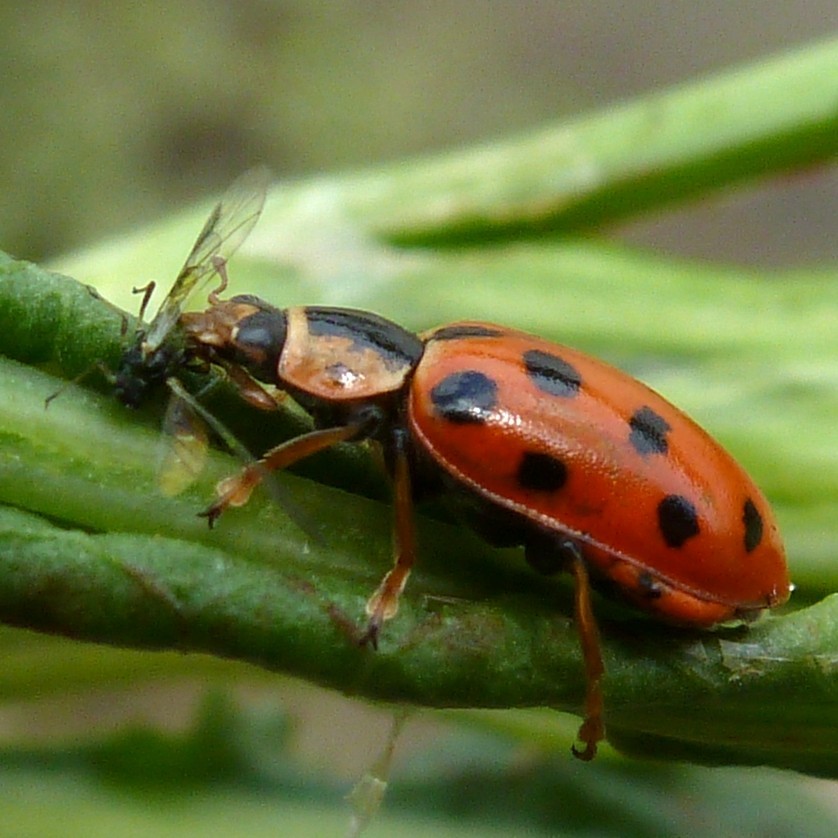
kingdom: Animalia
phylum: Arthropoda
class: Insecta
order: Coleoptera
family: Coccinellidae
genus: Hippodamia
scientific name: Hippodamia tredecimpunctata
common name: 13-spot ladybird
